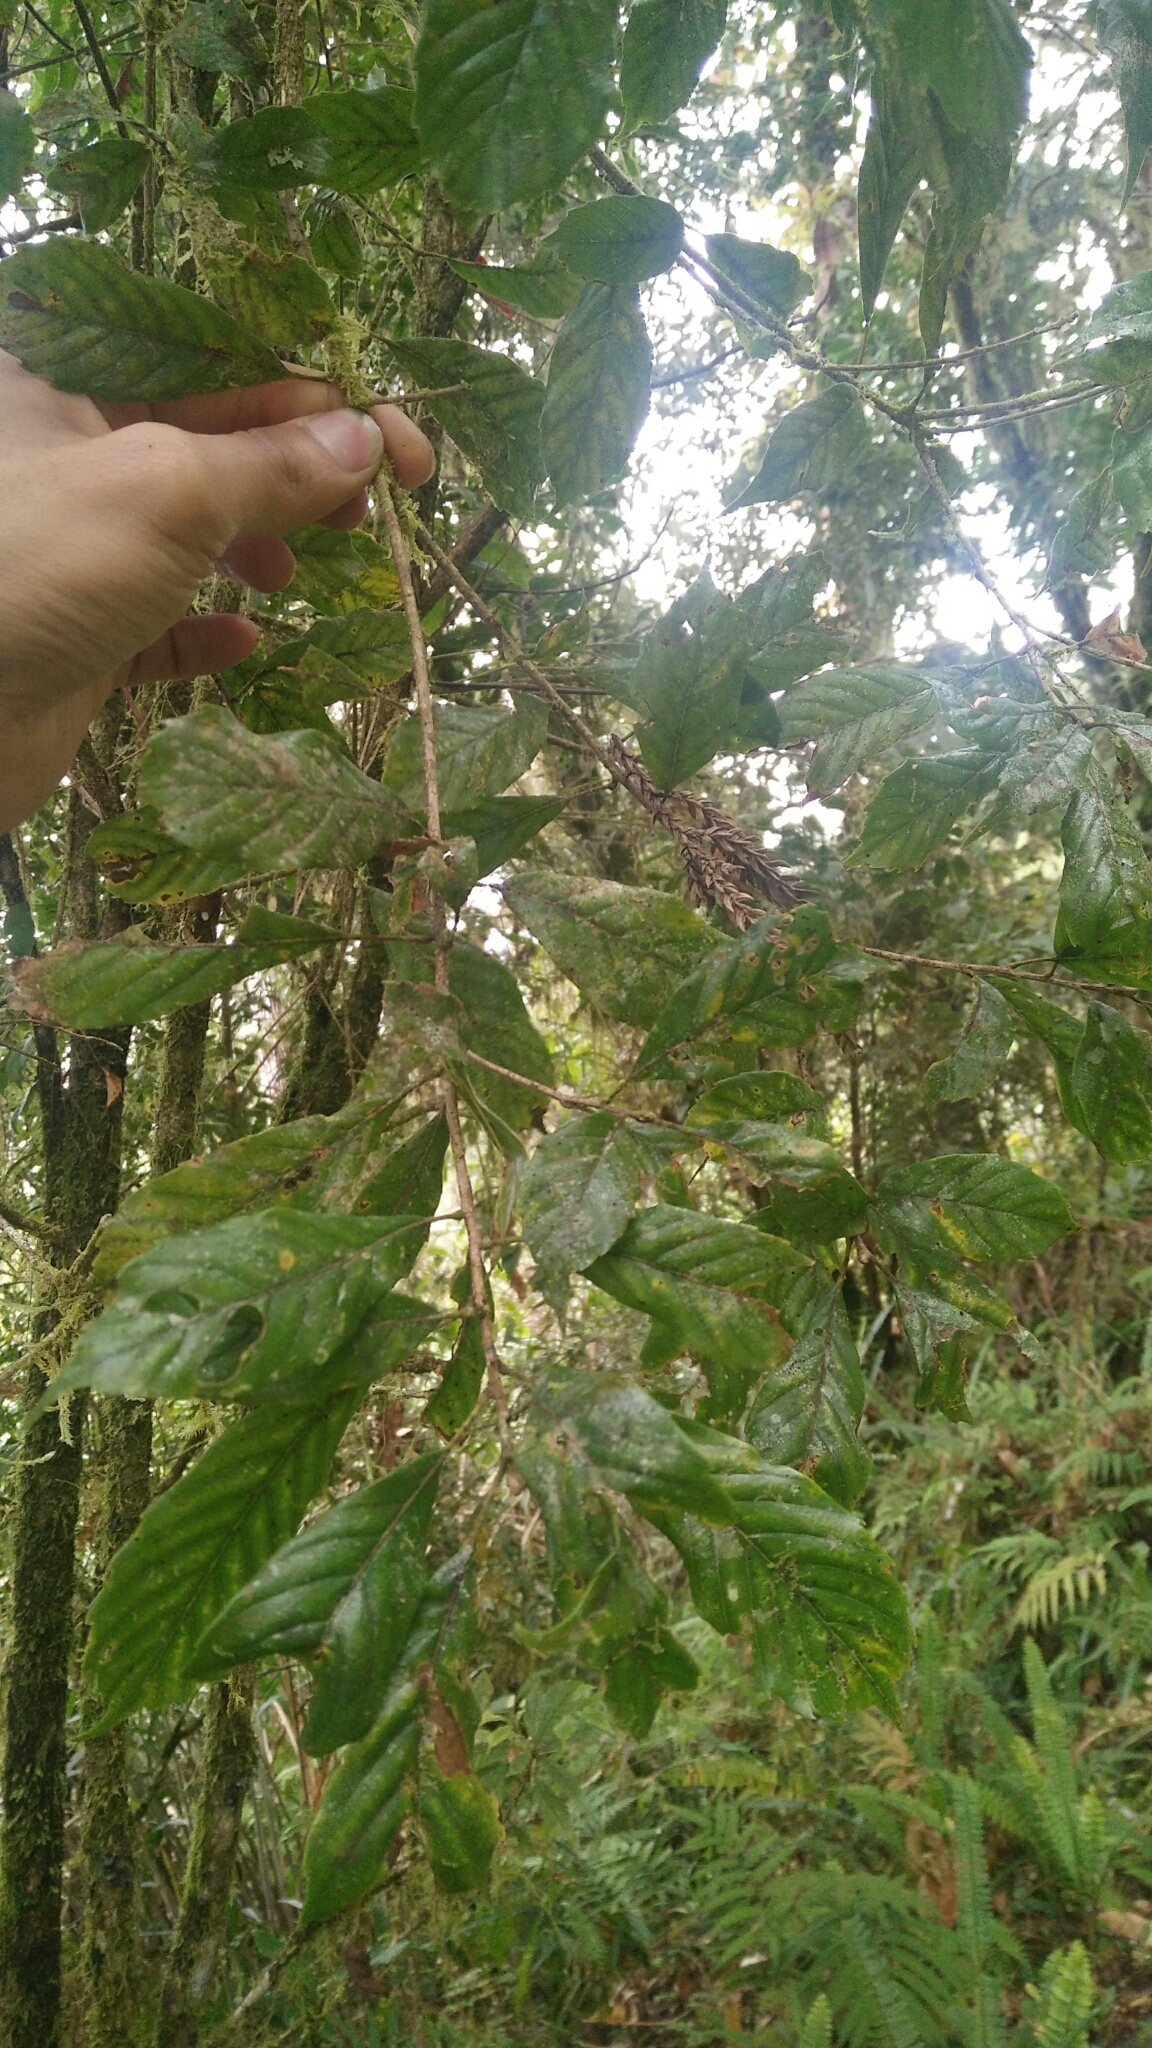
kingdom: Plantae
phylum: Tracheophyta
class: Magnoliopsida
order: Fagales
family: Fagaceae
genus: Lithocarpus
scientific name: Lithocarpus corneus
